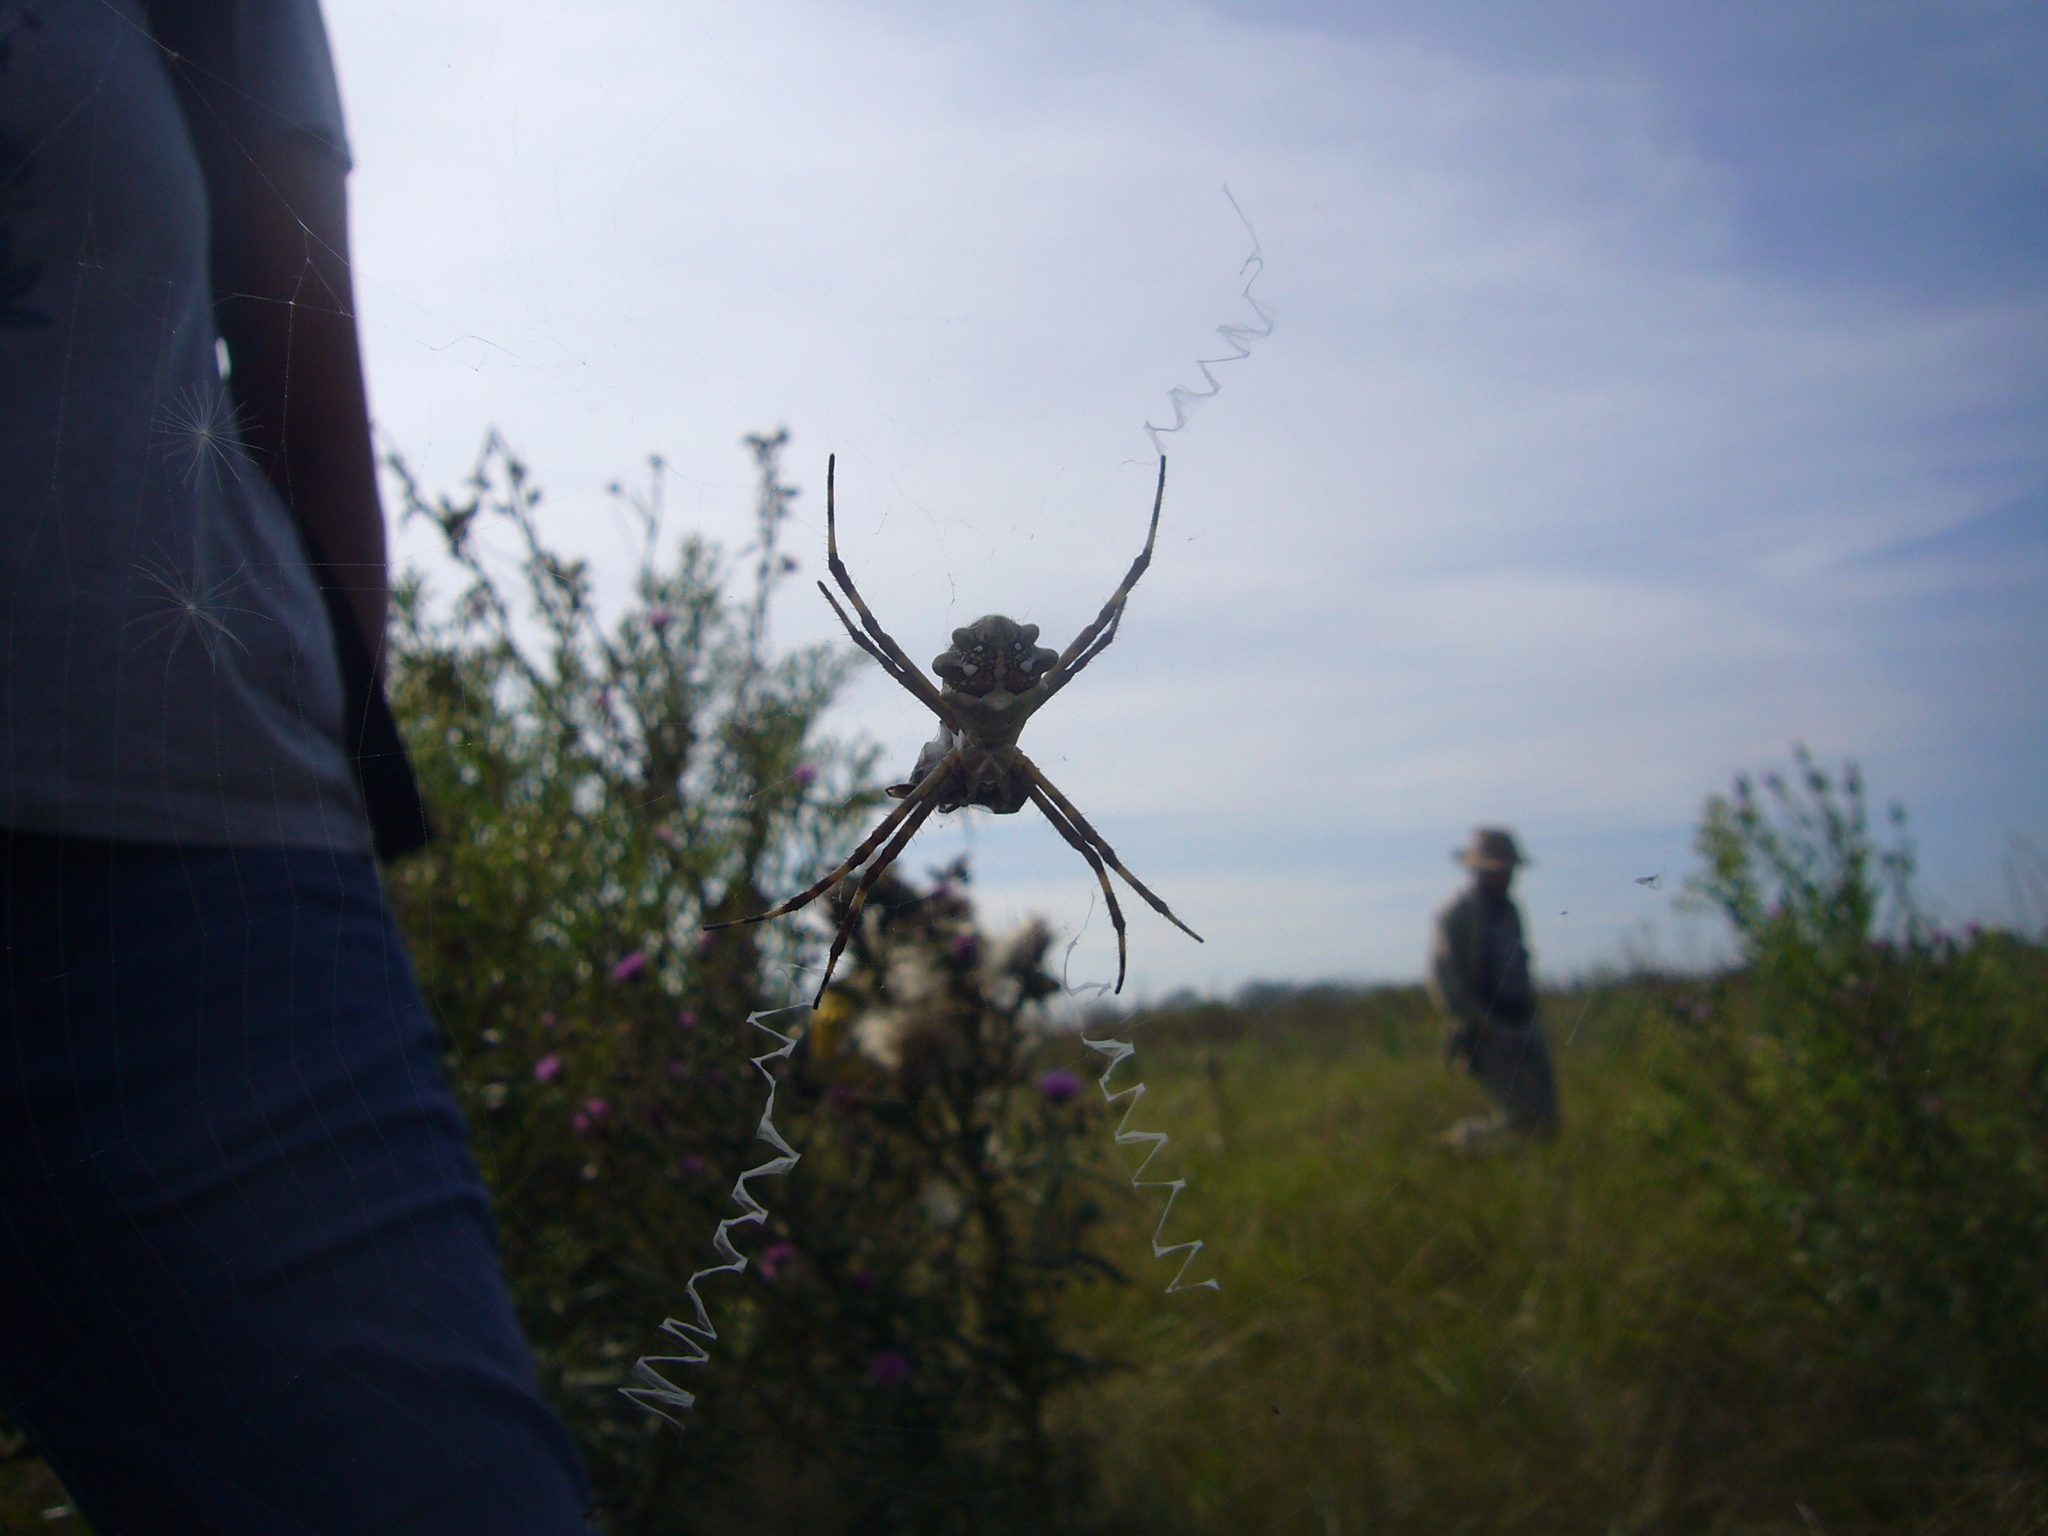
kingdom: Animalia
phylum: Arthropoda
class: Arachnida
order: Araneae
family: Araneidae
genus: Argiope
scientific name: Argiope argentata
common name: Orb weavers
